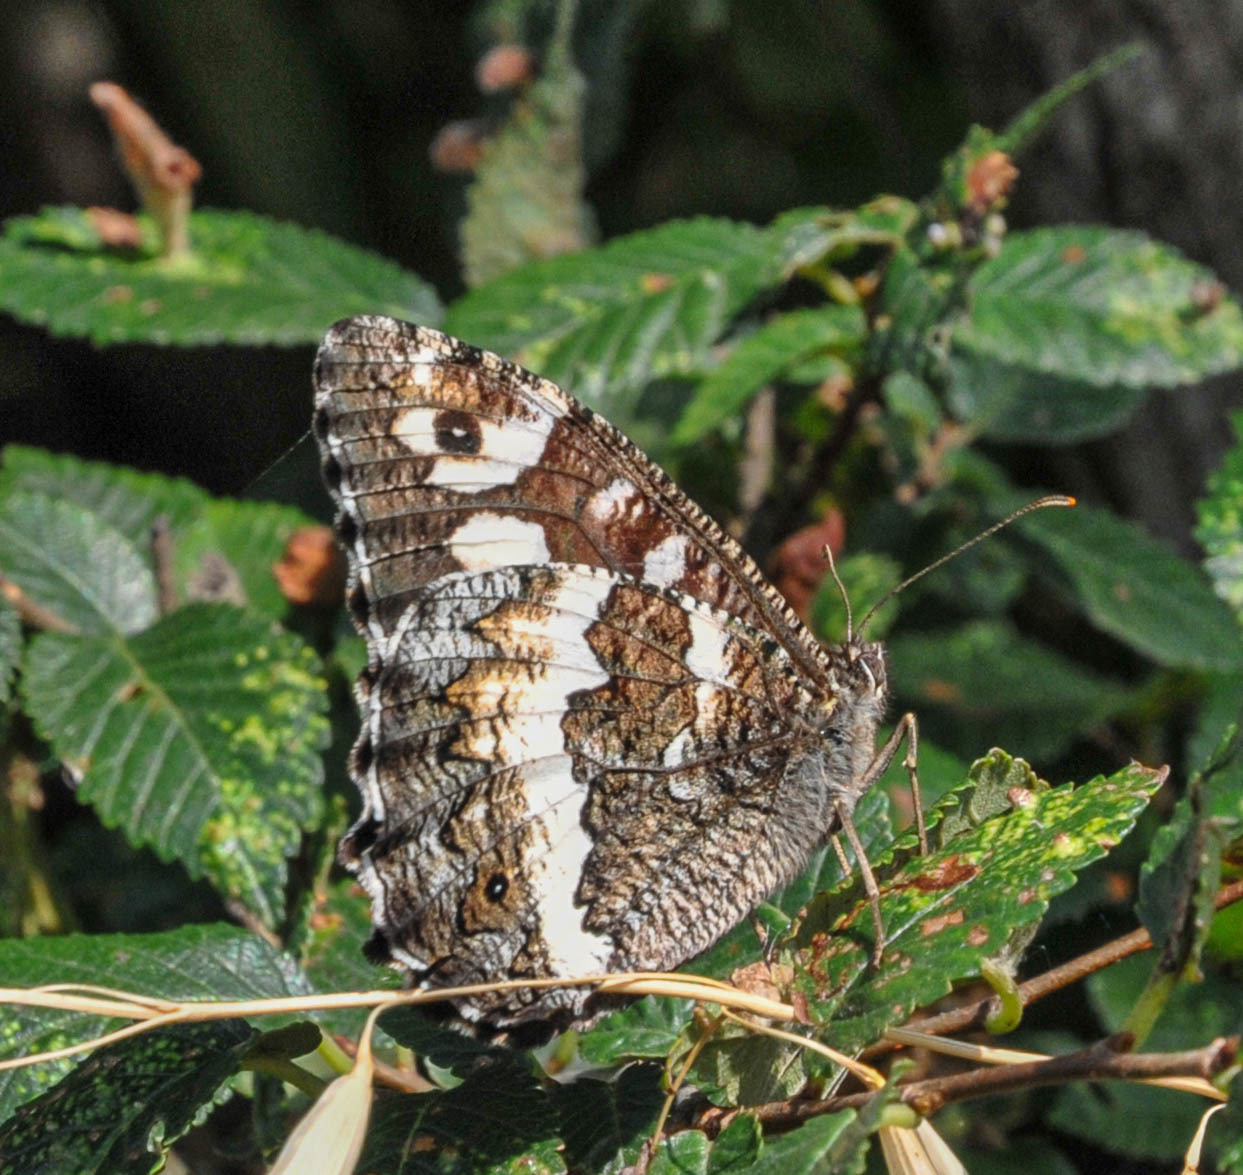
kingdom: Animalia
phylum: Arthropoda
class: Insecta
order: Lepidoptera
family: Lycaenidae
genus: Loweia
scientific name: Loweia tityrus
